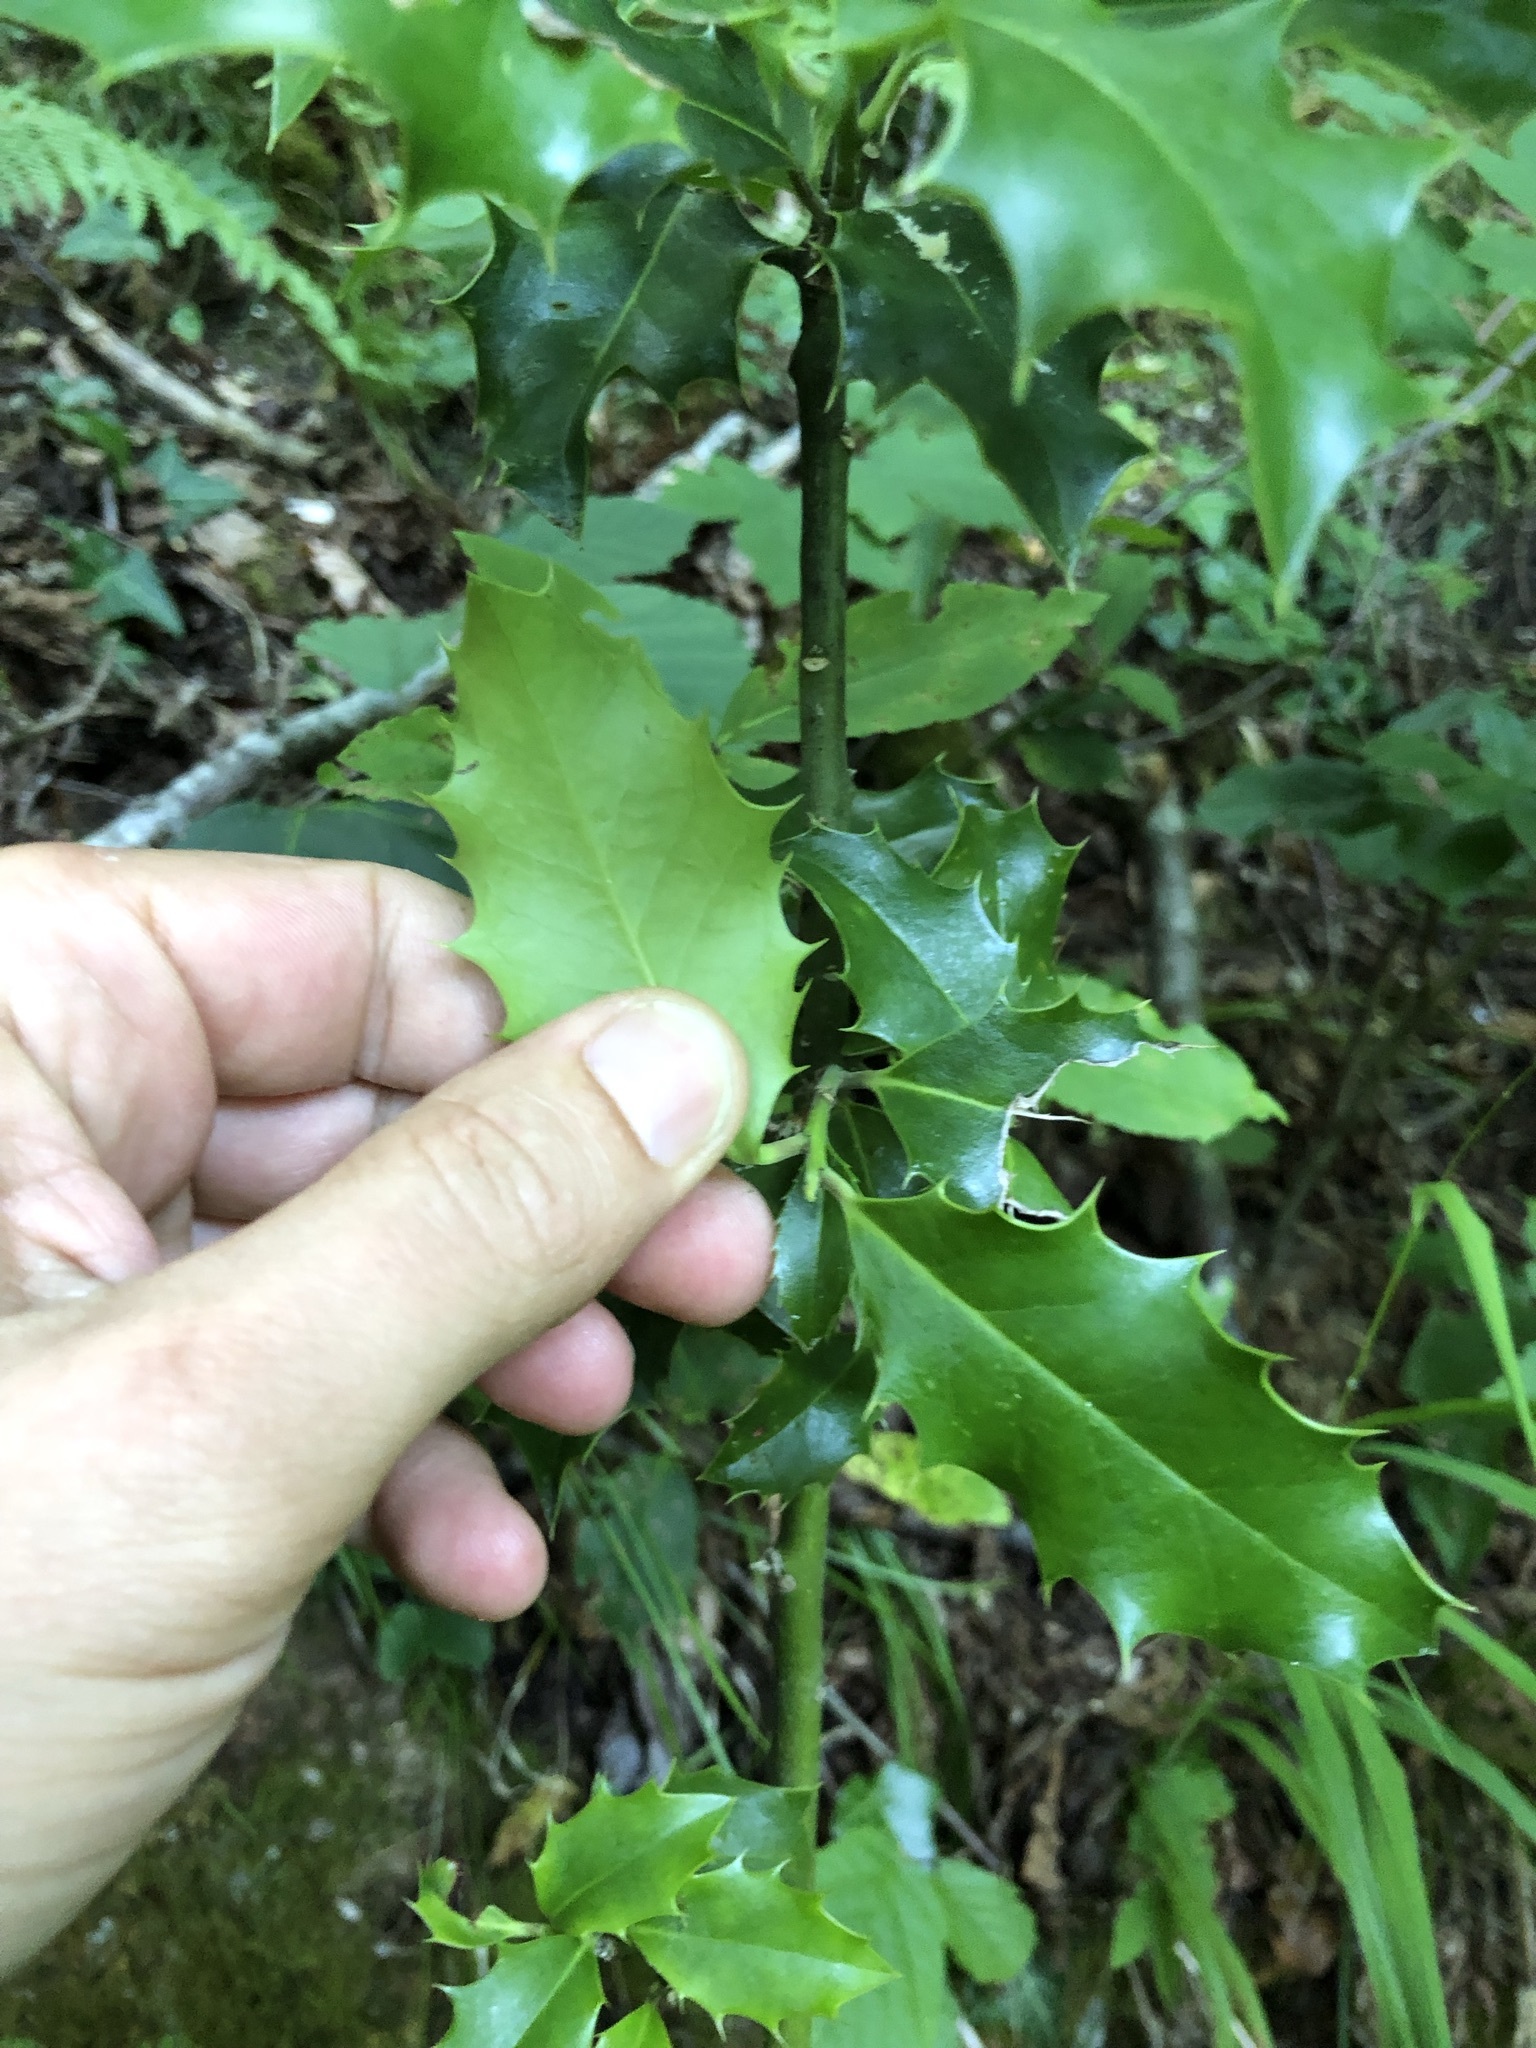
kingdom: Plantae
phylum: Tracheophyta
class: Magnoliopsida
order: Aquifoliales
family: Aquifoliaceae
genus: Ilex
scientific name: Ilex aquifolium
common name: English holly
